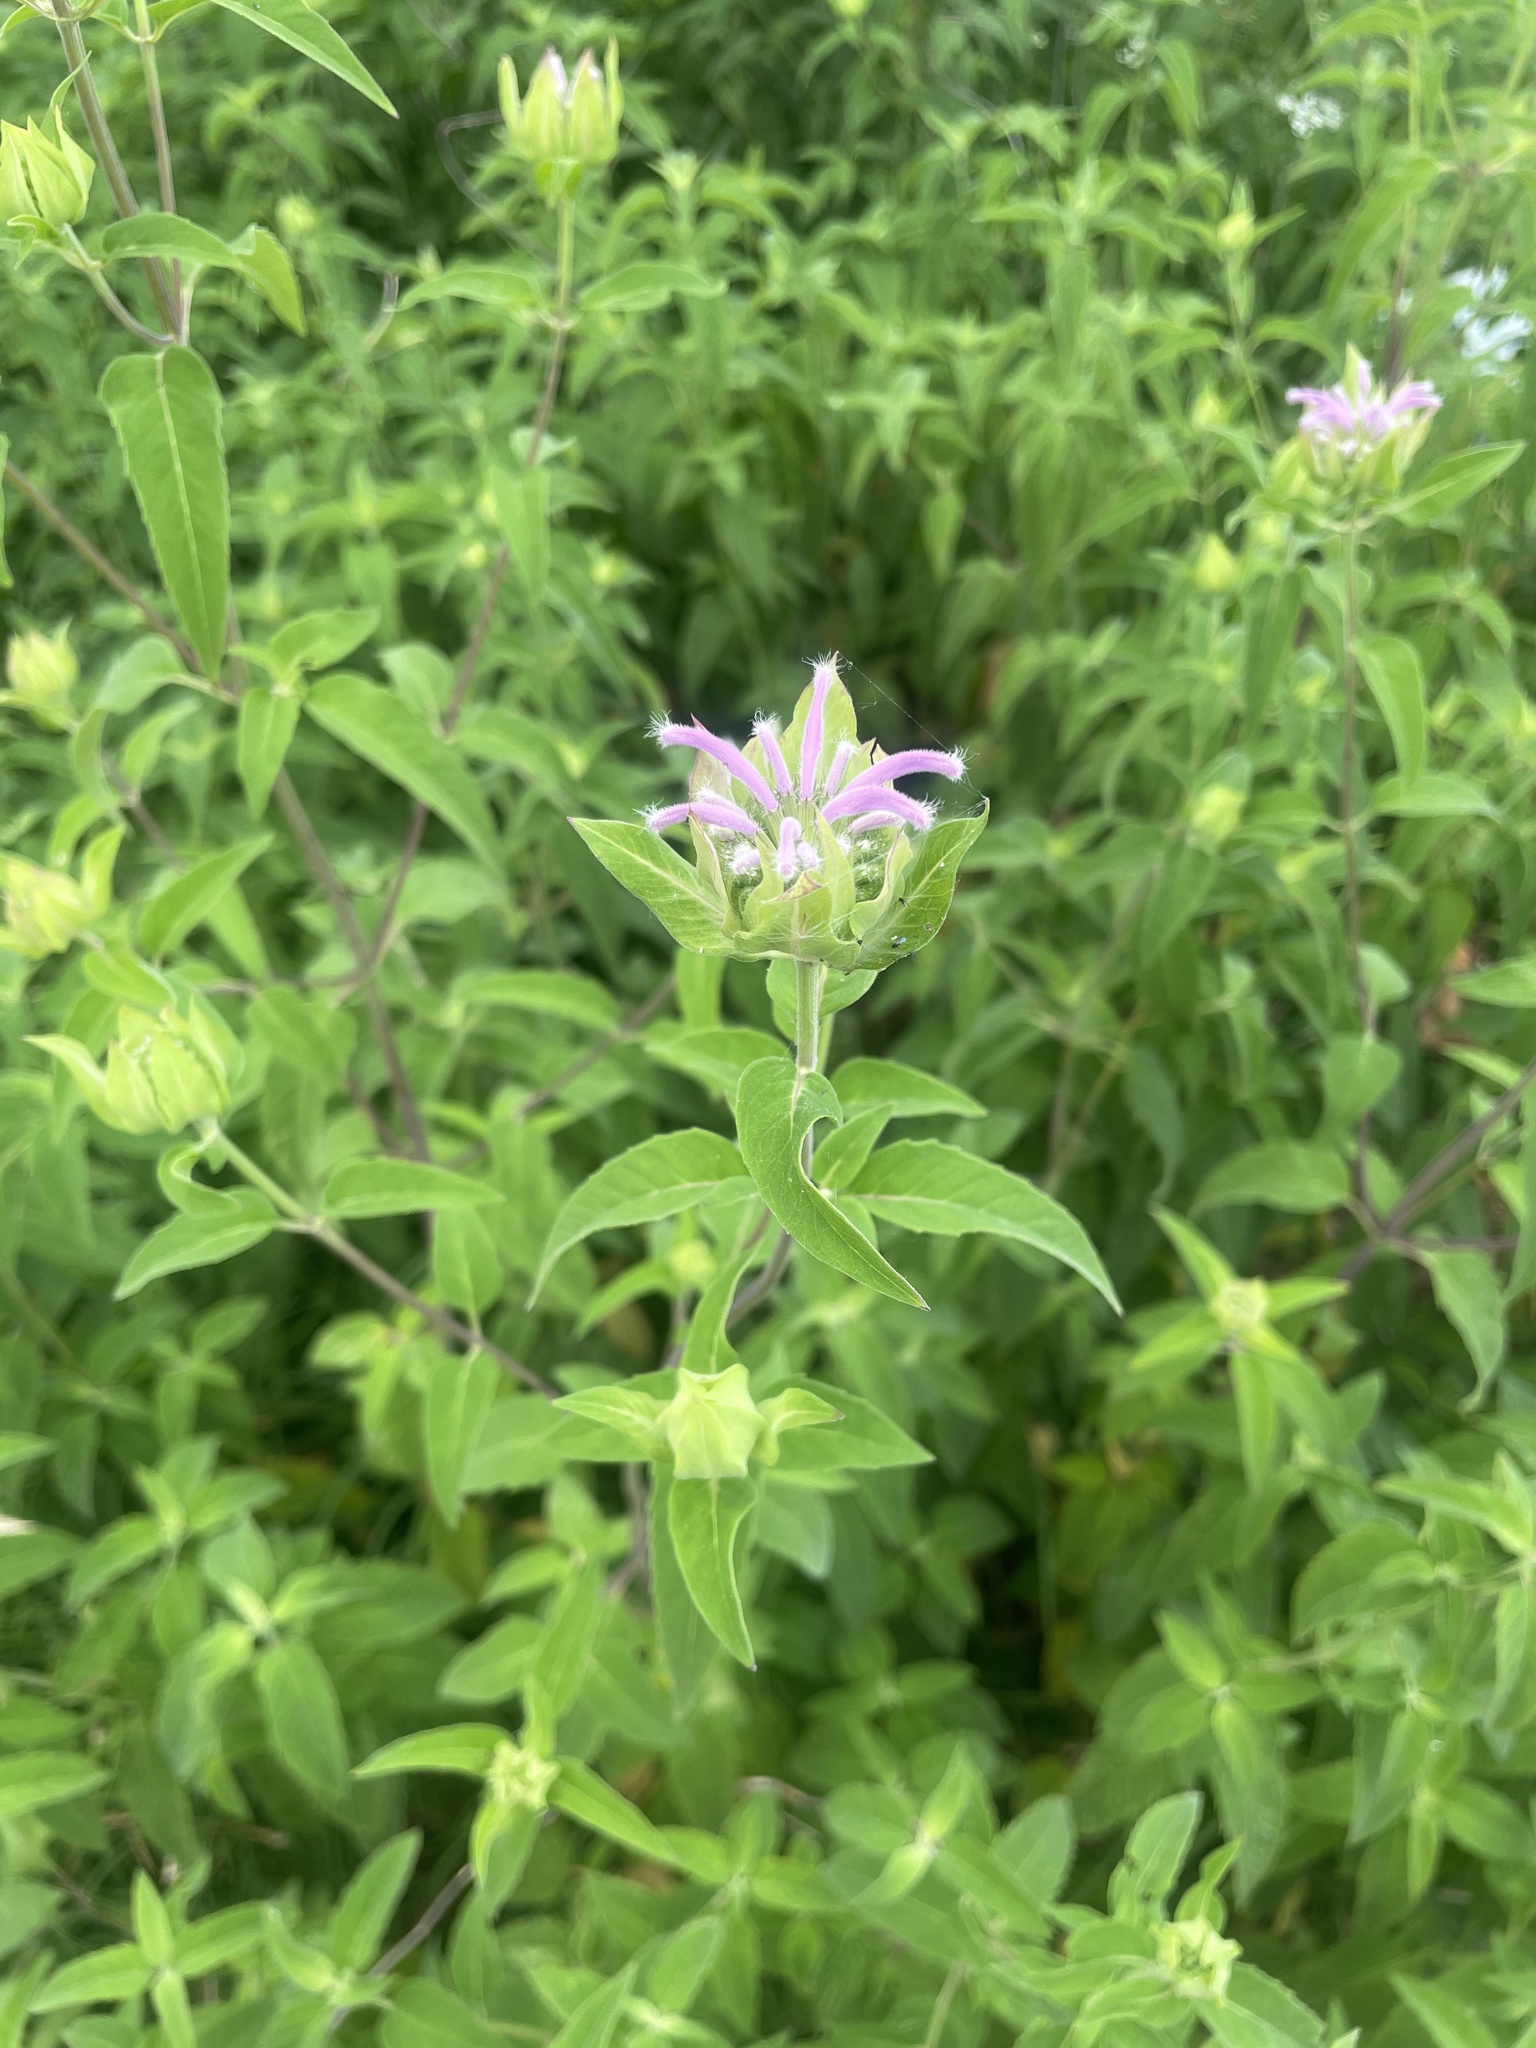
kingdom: Plantae
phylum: Tracheophyta
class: Magnoliopsida
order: Lamiales
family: Lamiaceae
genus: Monarda
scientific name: Monarda fistulosa
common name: Purple beebalm
